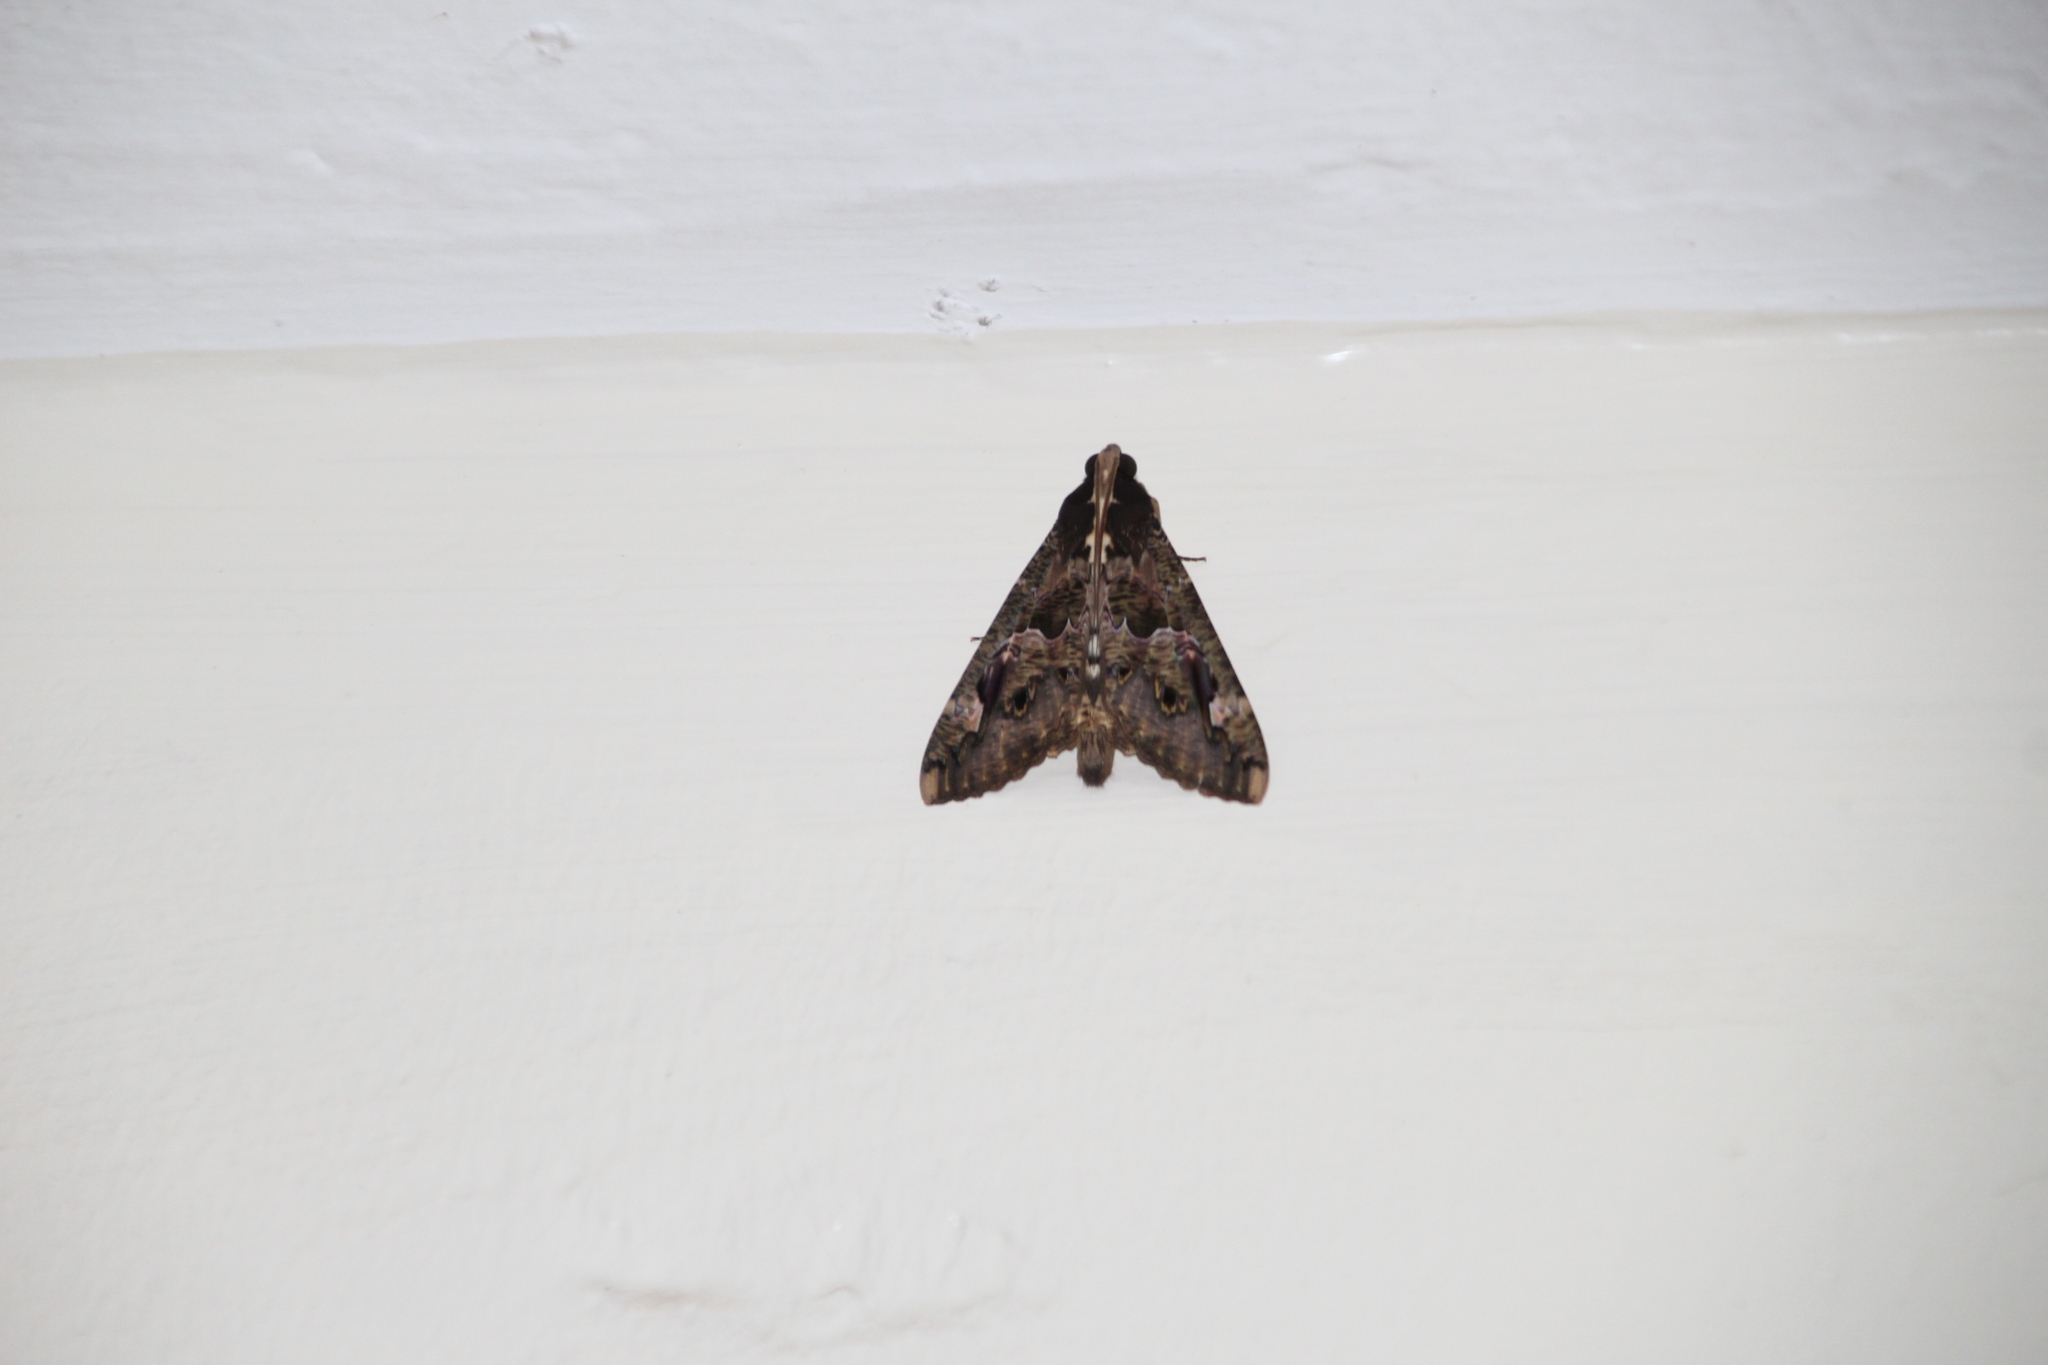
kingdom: Animalia
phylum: Arthropoda
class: Insecta
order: Lepidoptera
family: Erebidae
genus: Sphingomorpha
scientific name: Sphingomorpha chlorea
